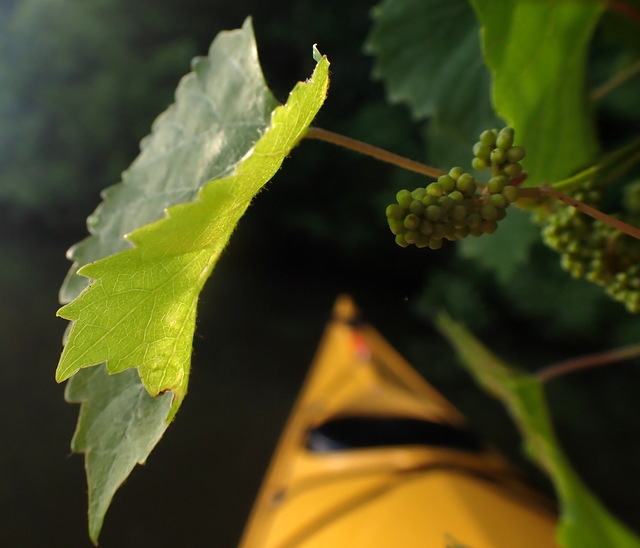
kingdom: Plantae
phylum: Tracheophyta
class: Magnoliopsida
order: Vitales
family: Vitaceae
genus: Vitis
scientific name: Vitis rotundifolia
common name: Muscadine grape
